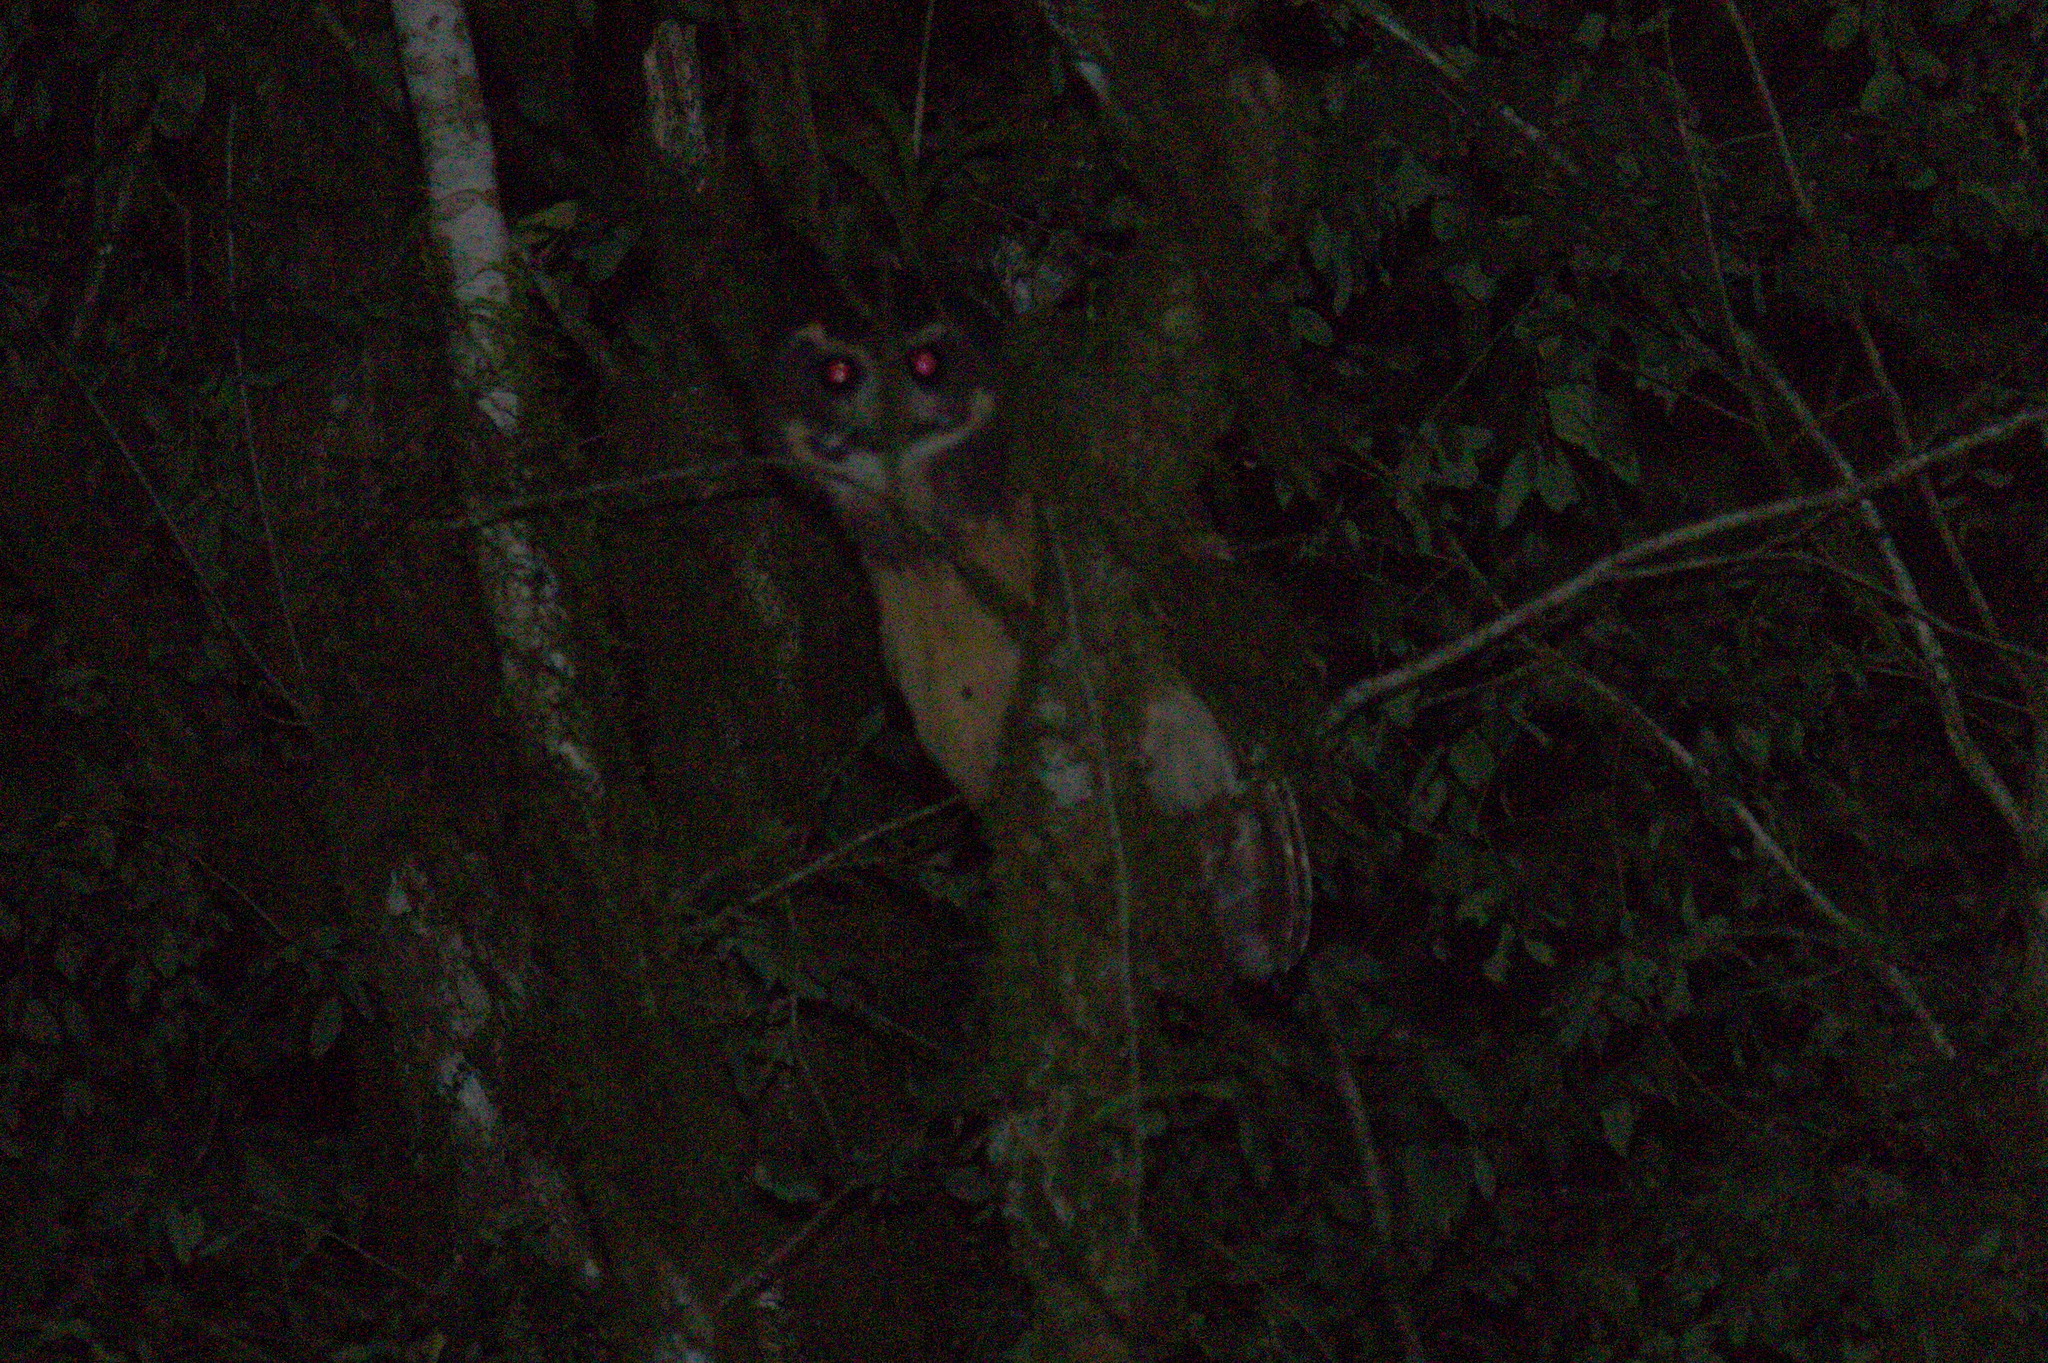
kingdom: Animalia
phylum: Chordata
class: Aves
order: Strigiformes
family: Strigidae
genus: Pulsatrix
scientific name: Pulsatrix koeniswaldiana
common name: Tawny-browed owl
